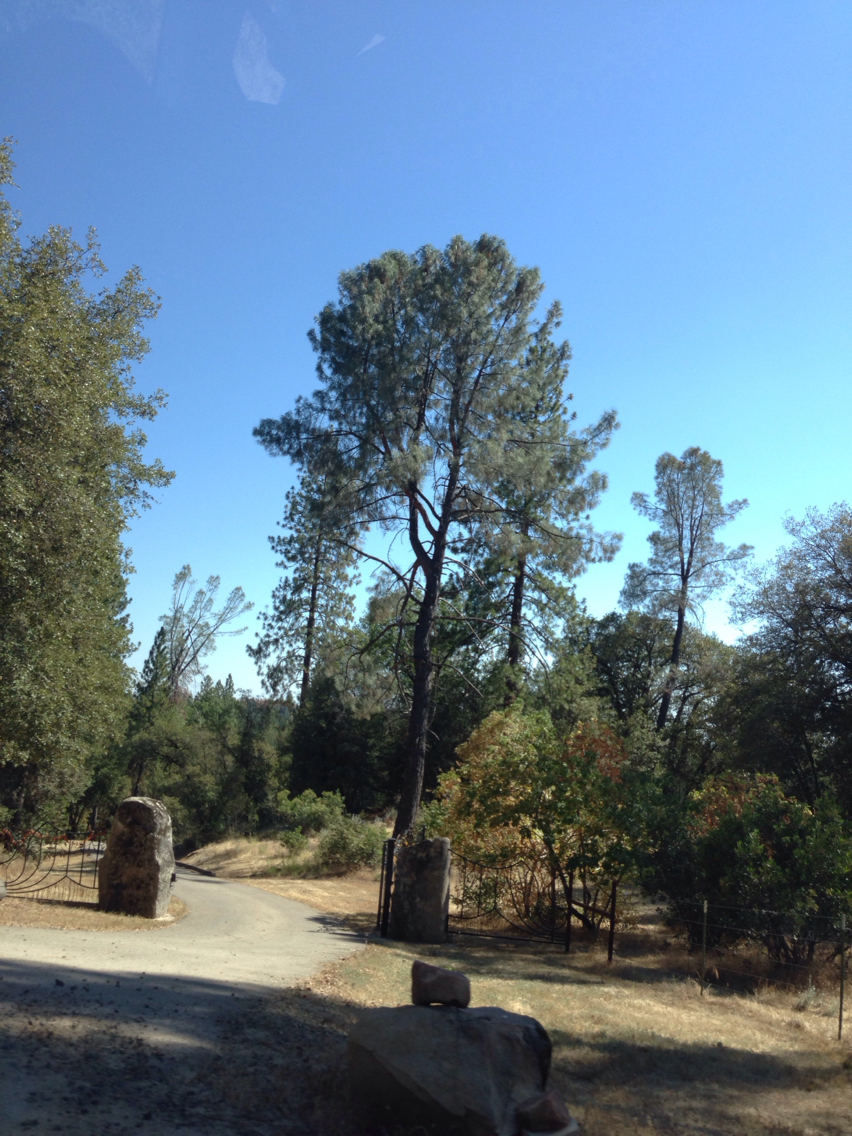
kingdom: Plantae
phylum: Tracheophyta
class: Pinopsida
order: Pinales
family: Pinaceae
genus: Pinus
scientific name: Pinus sabiniana
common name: Bull pine
